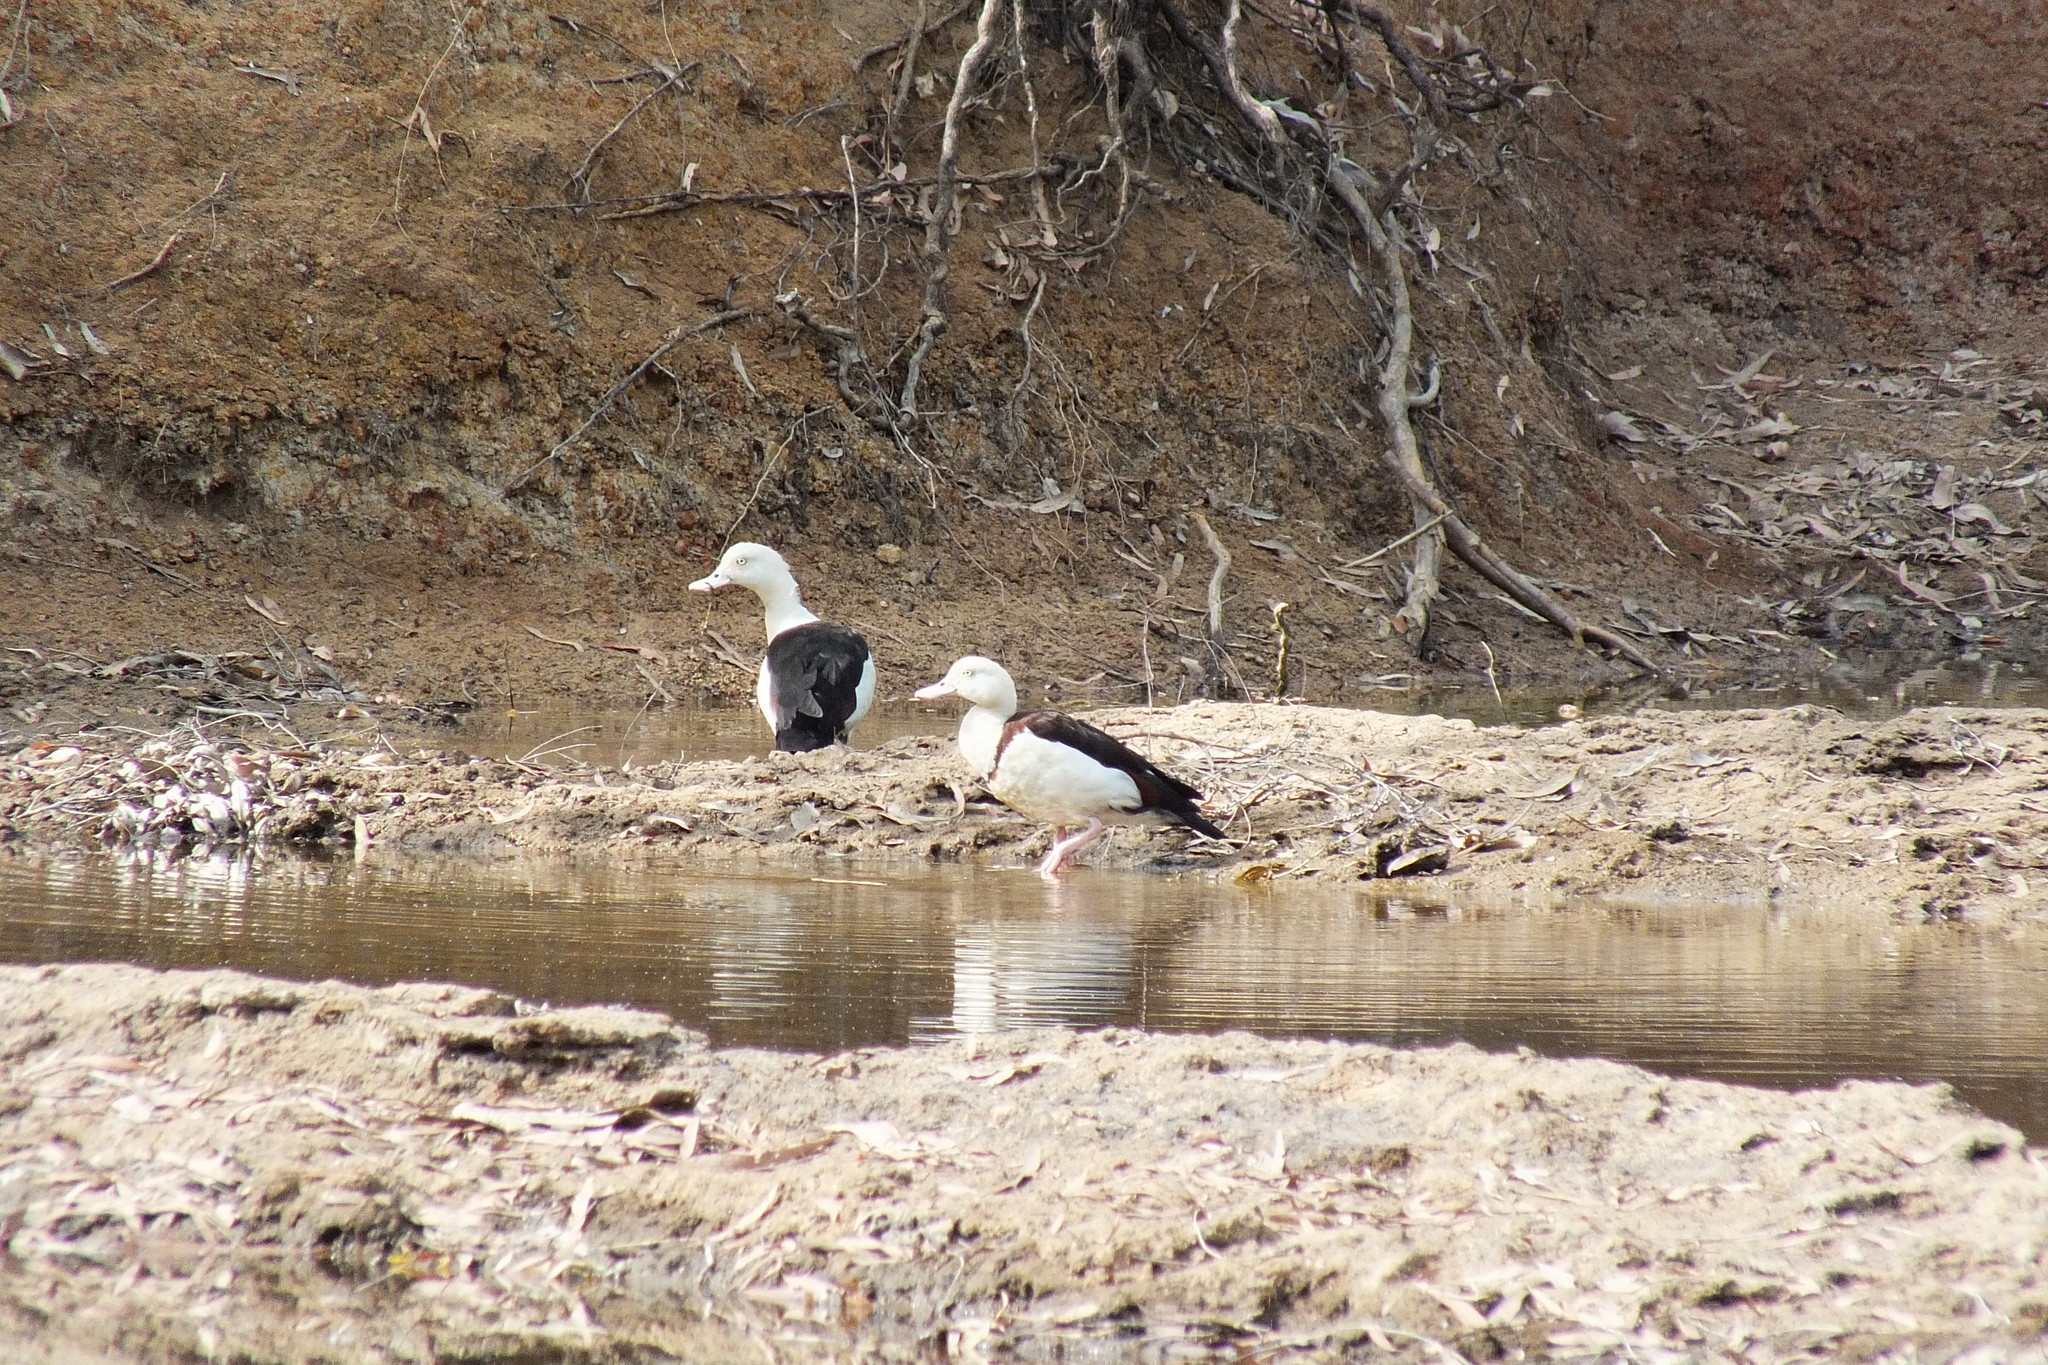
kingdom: Animalia
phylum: Chordata
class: Aves
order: Anseriformes
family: Anatidae
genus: Radjah
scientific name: Radjah radjah
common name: Radjah shelduck
